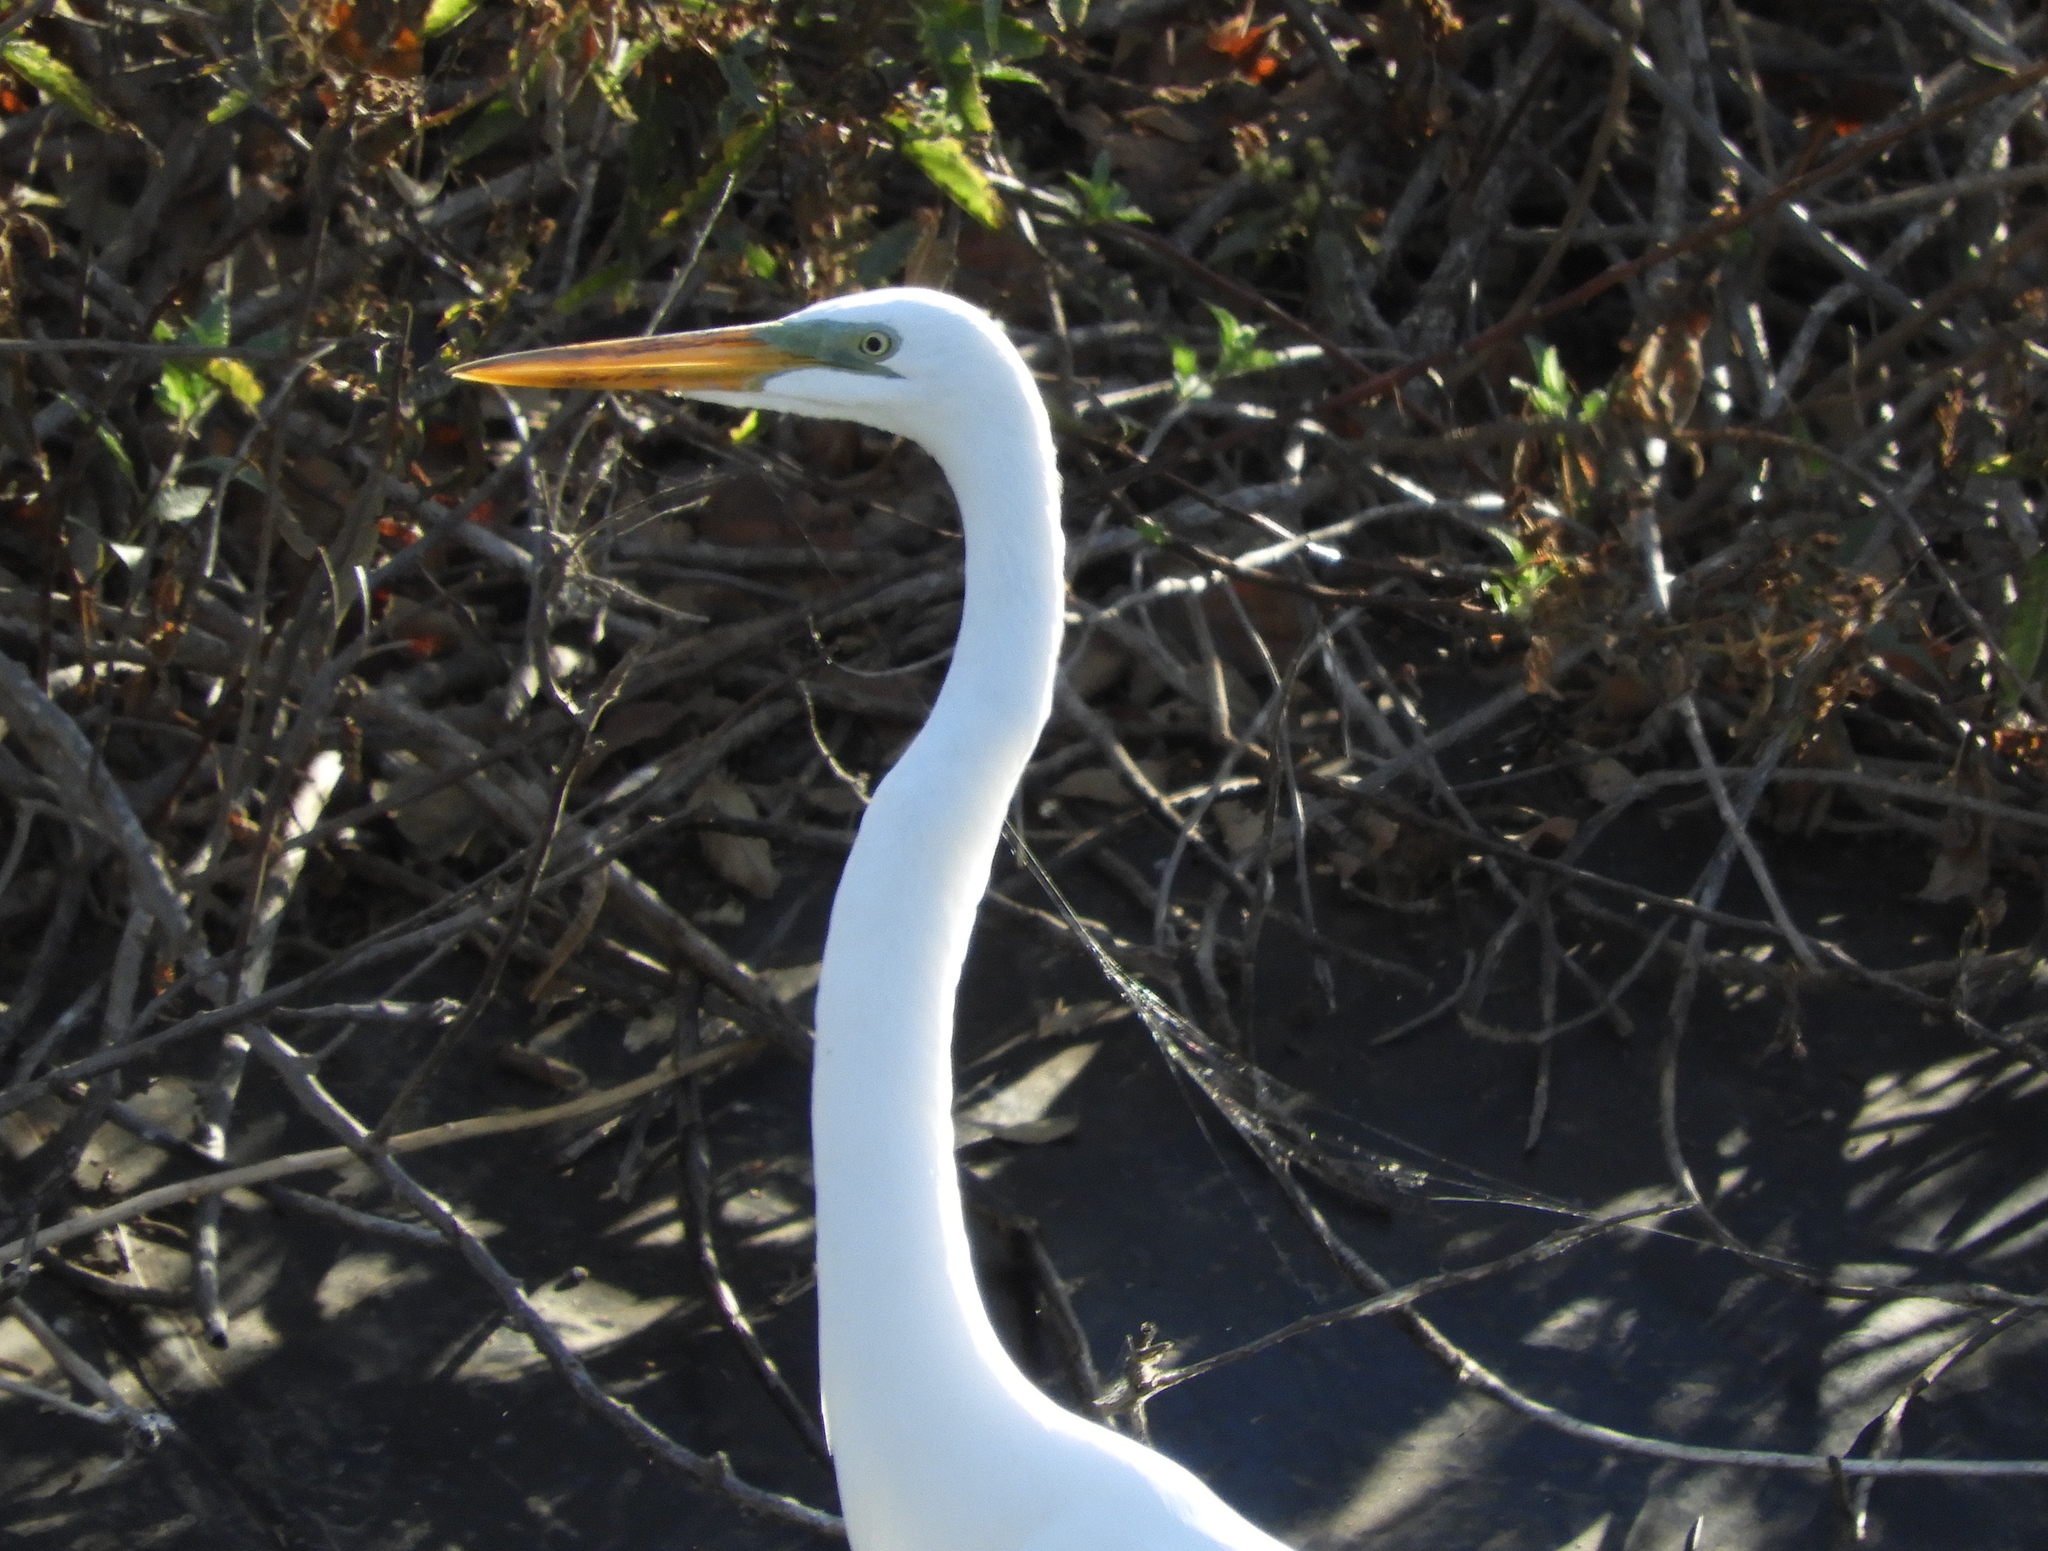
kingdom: Animalia
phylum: Chordata
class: Aves
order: Pelecaniformes
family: Ardeidae
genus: Ardea
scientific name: Ardea alba
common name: Great egret
